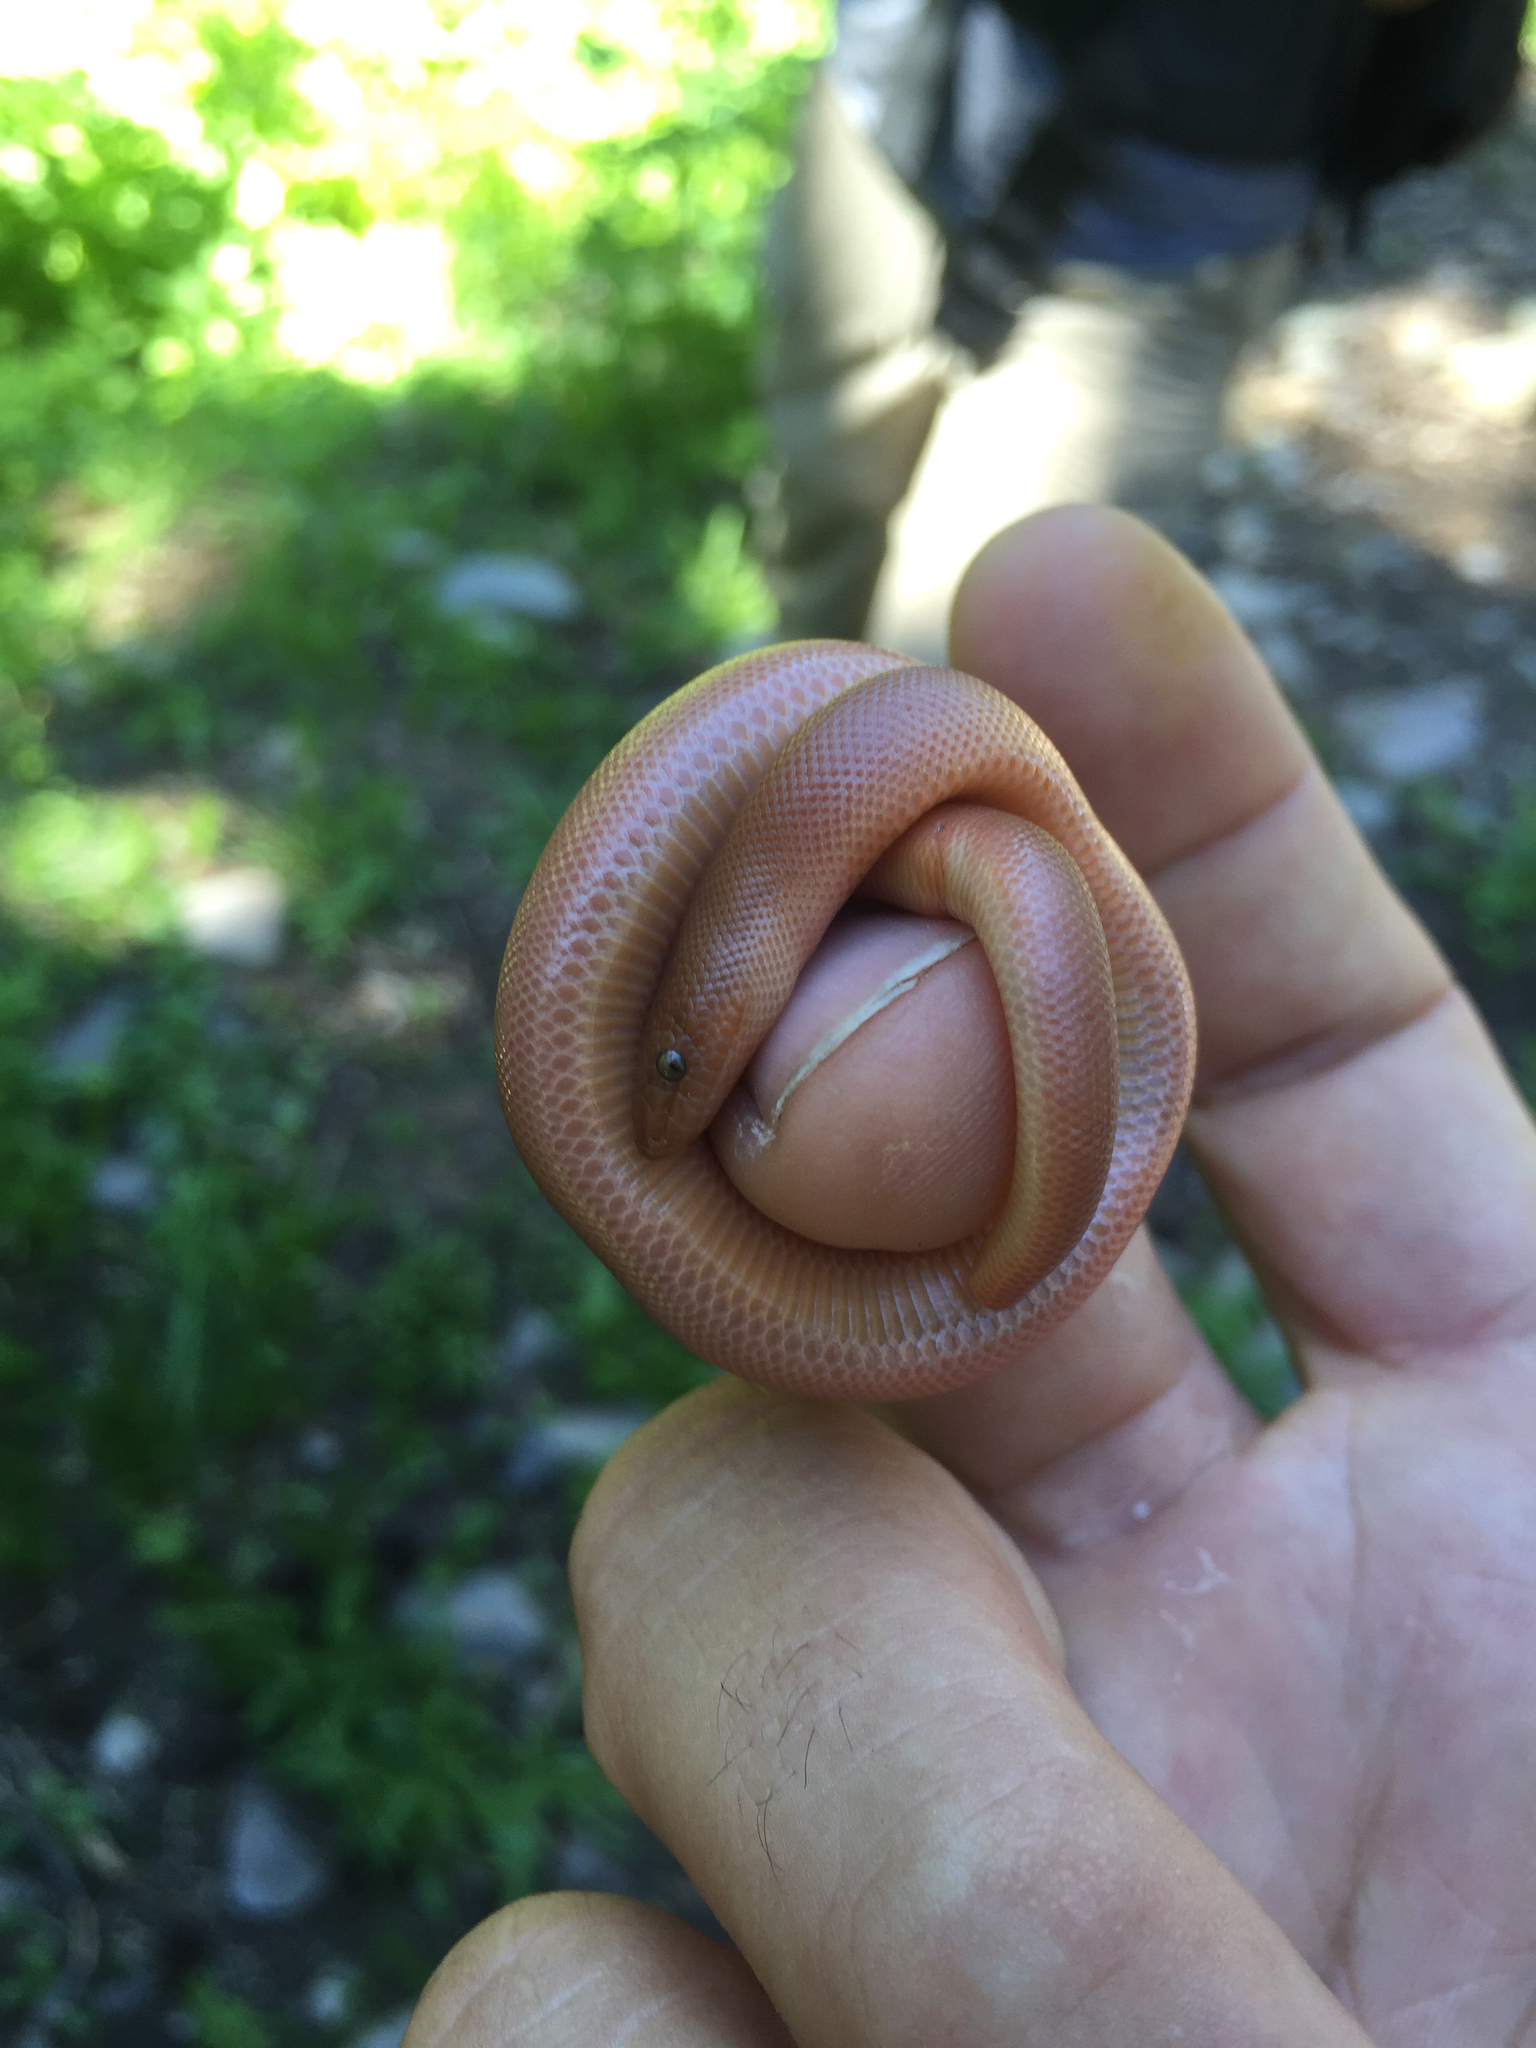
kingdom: Animalia
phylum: Chordata
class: Squamata
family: Boidae
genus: Charina
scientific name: Charina bottae
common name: Northern rubber boa
